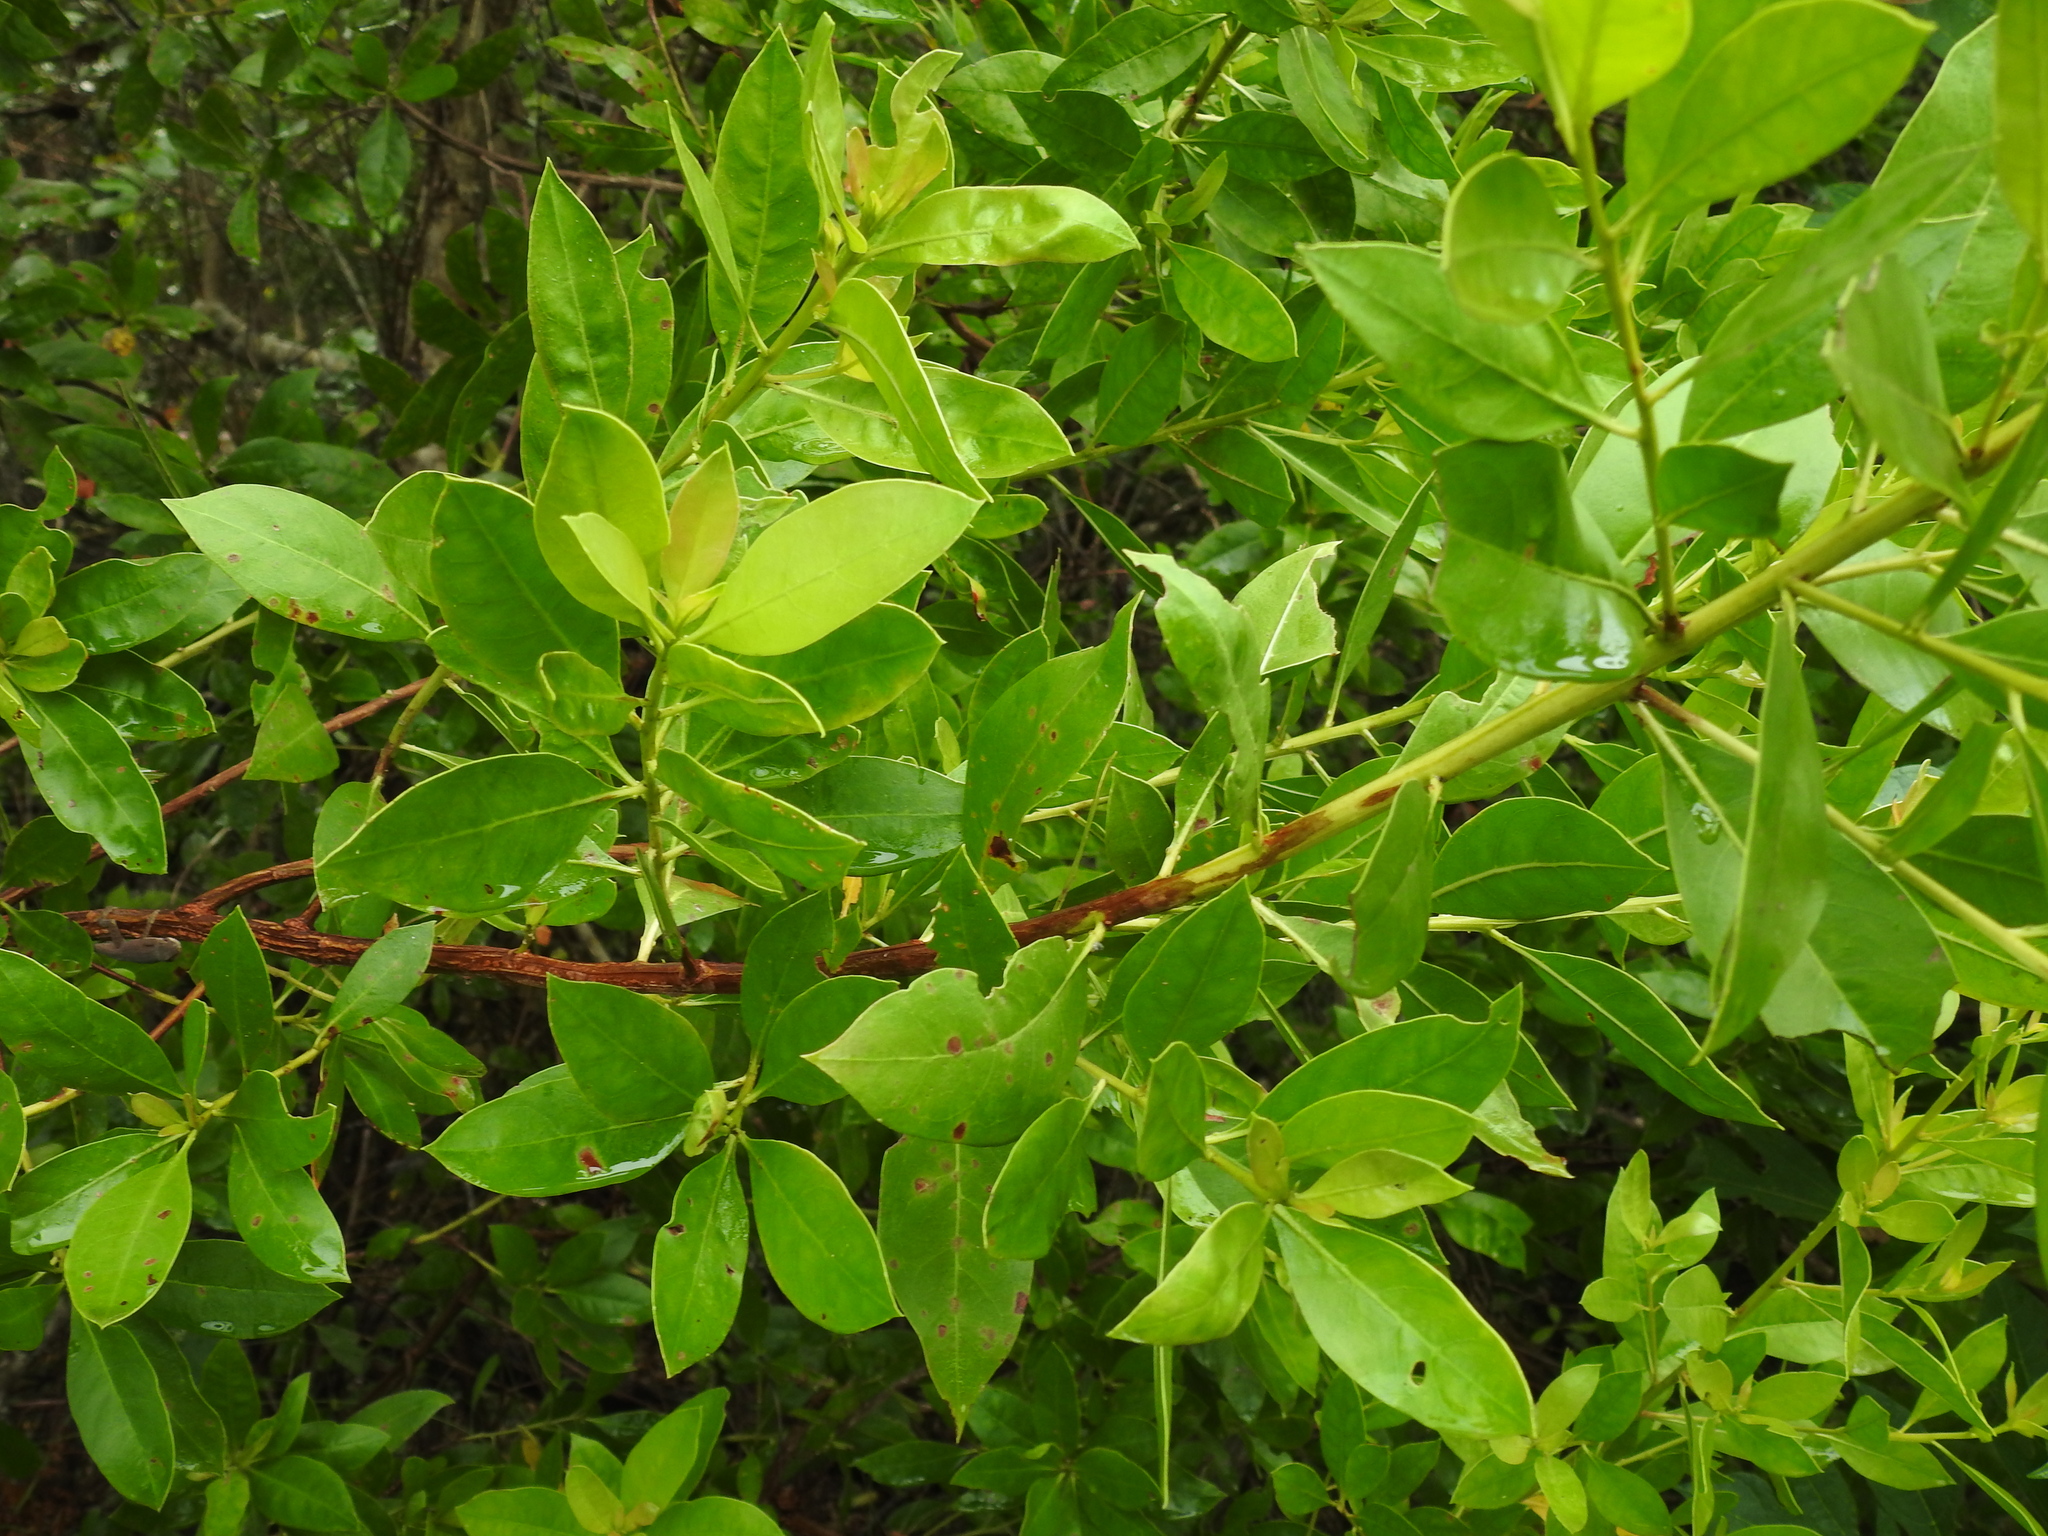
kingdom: Plantae
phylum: Tracheophyta
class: Magnoliopsida
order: Myrtales
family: Combretaceae
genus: Conocarpus
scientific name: Conocarpus erectus
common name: Button mangrove
